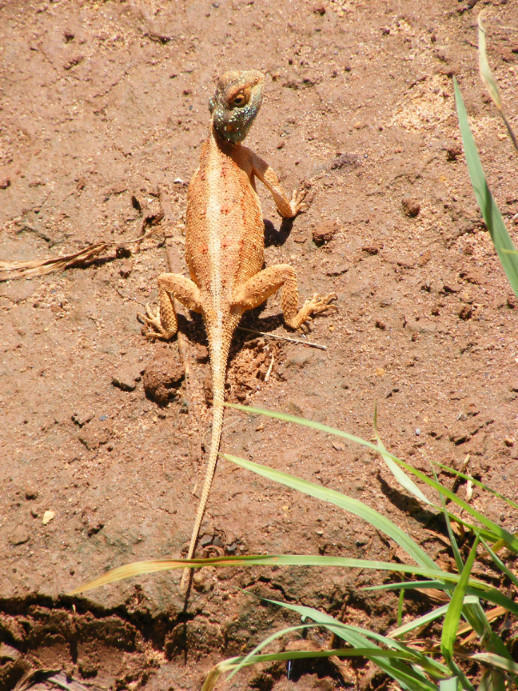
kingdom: Animalia
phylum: Chordata
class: Squamata
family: Agamidae
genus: Agama
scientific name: Agama armata
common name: Northern ground agama
